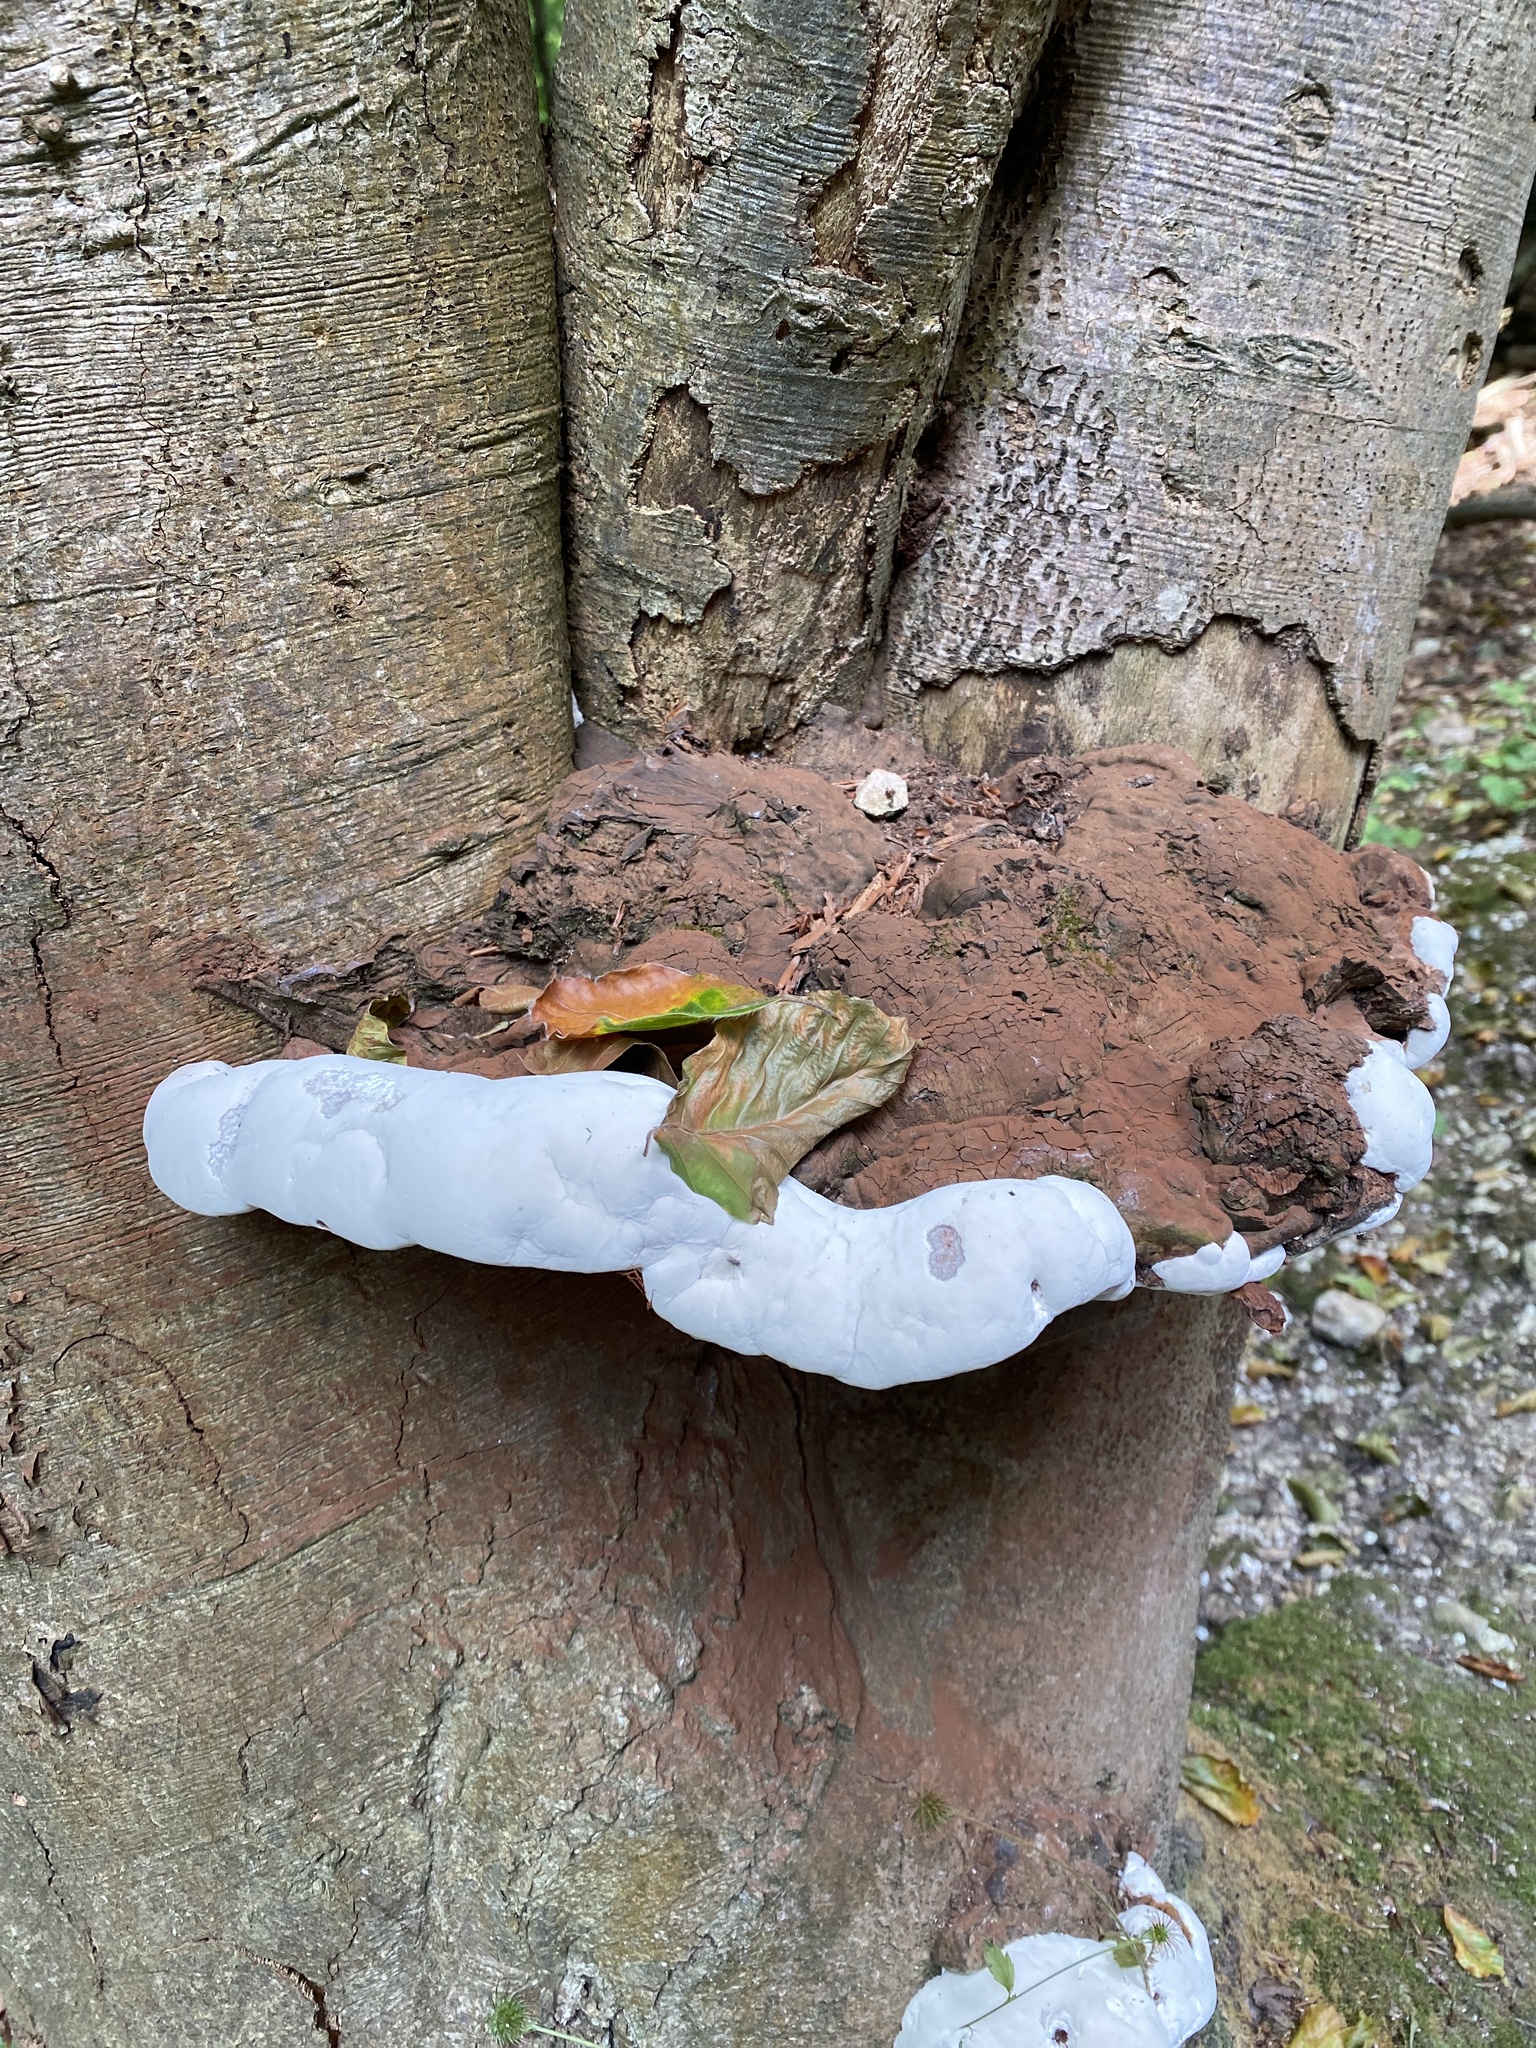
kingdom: Fungi
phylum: Basidiomycota
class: Agaricomycetes
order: Polyporales
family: Polyporaceae
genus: Ganoderma
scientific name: Ganoderma applanatum
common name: Artist's bracket
